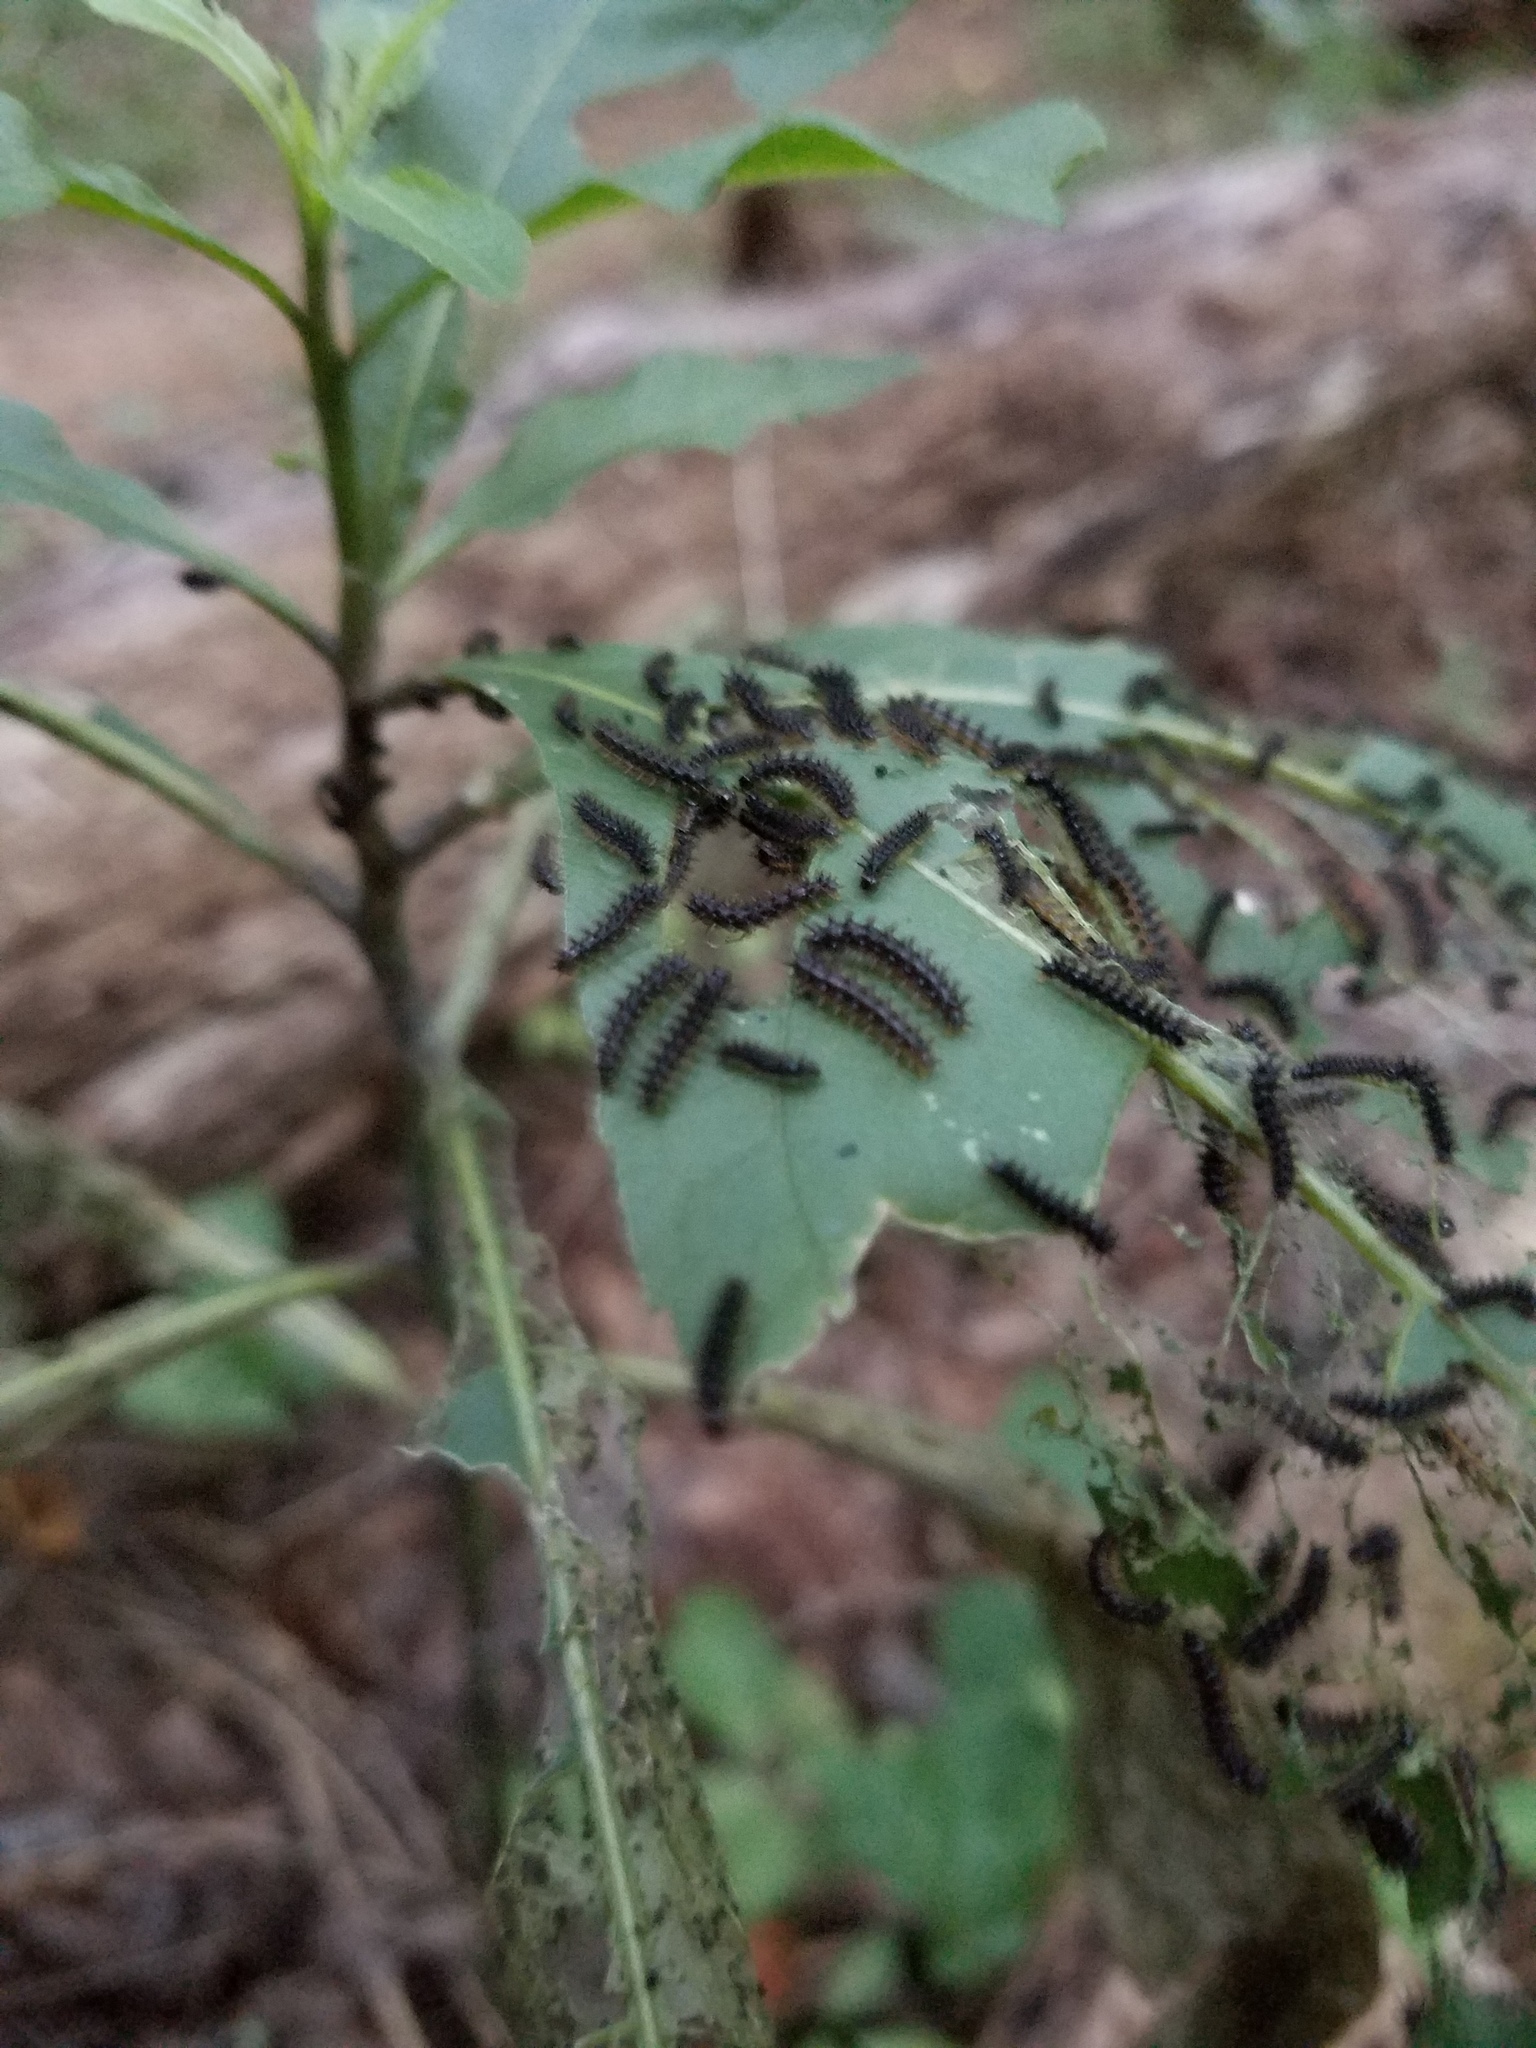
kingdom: Animalia
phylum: Arthropoda
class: Insecta
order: Lepidoptera
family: Nymphalidae
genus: Chlosyne
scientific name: Chlosyne nycteis
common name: Silvery checkerspot
